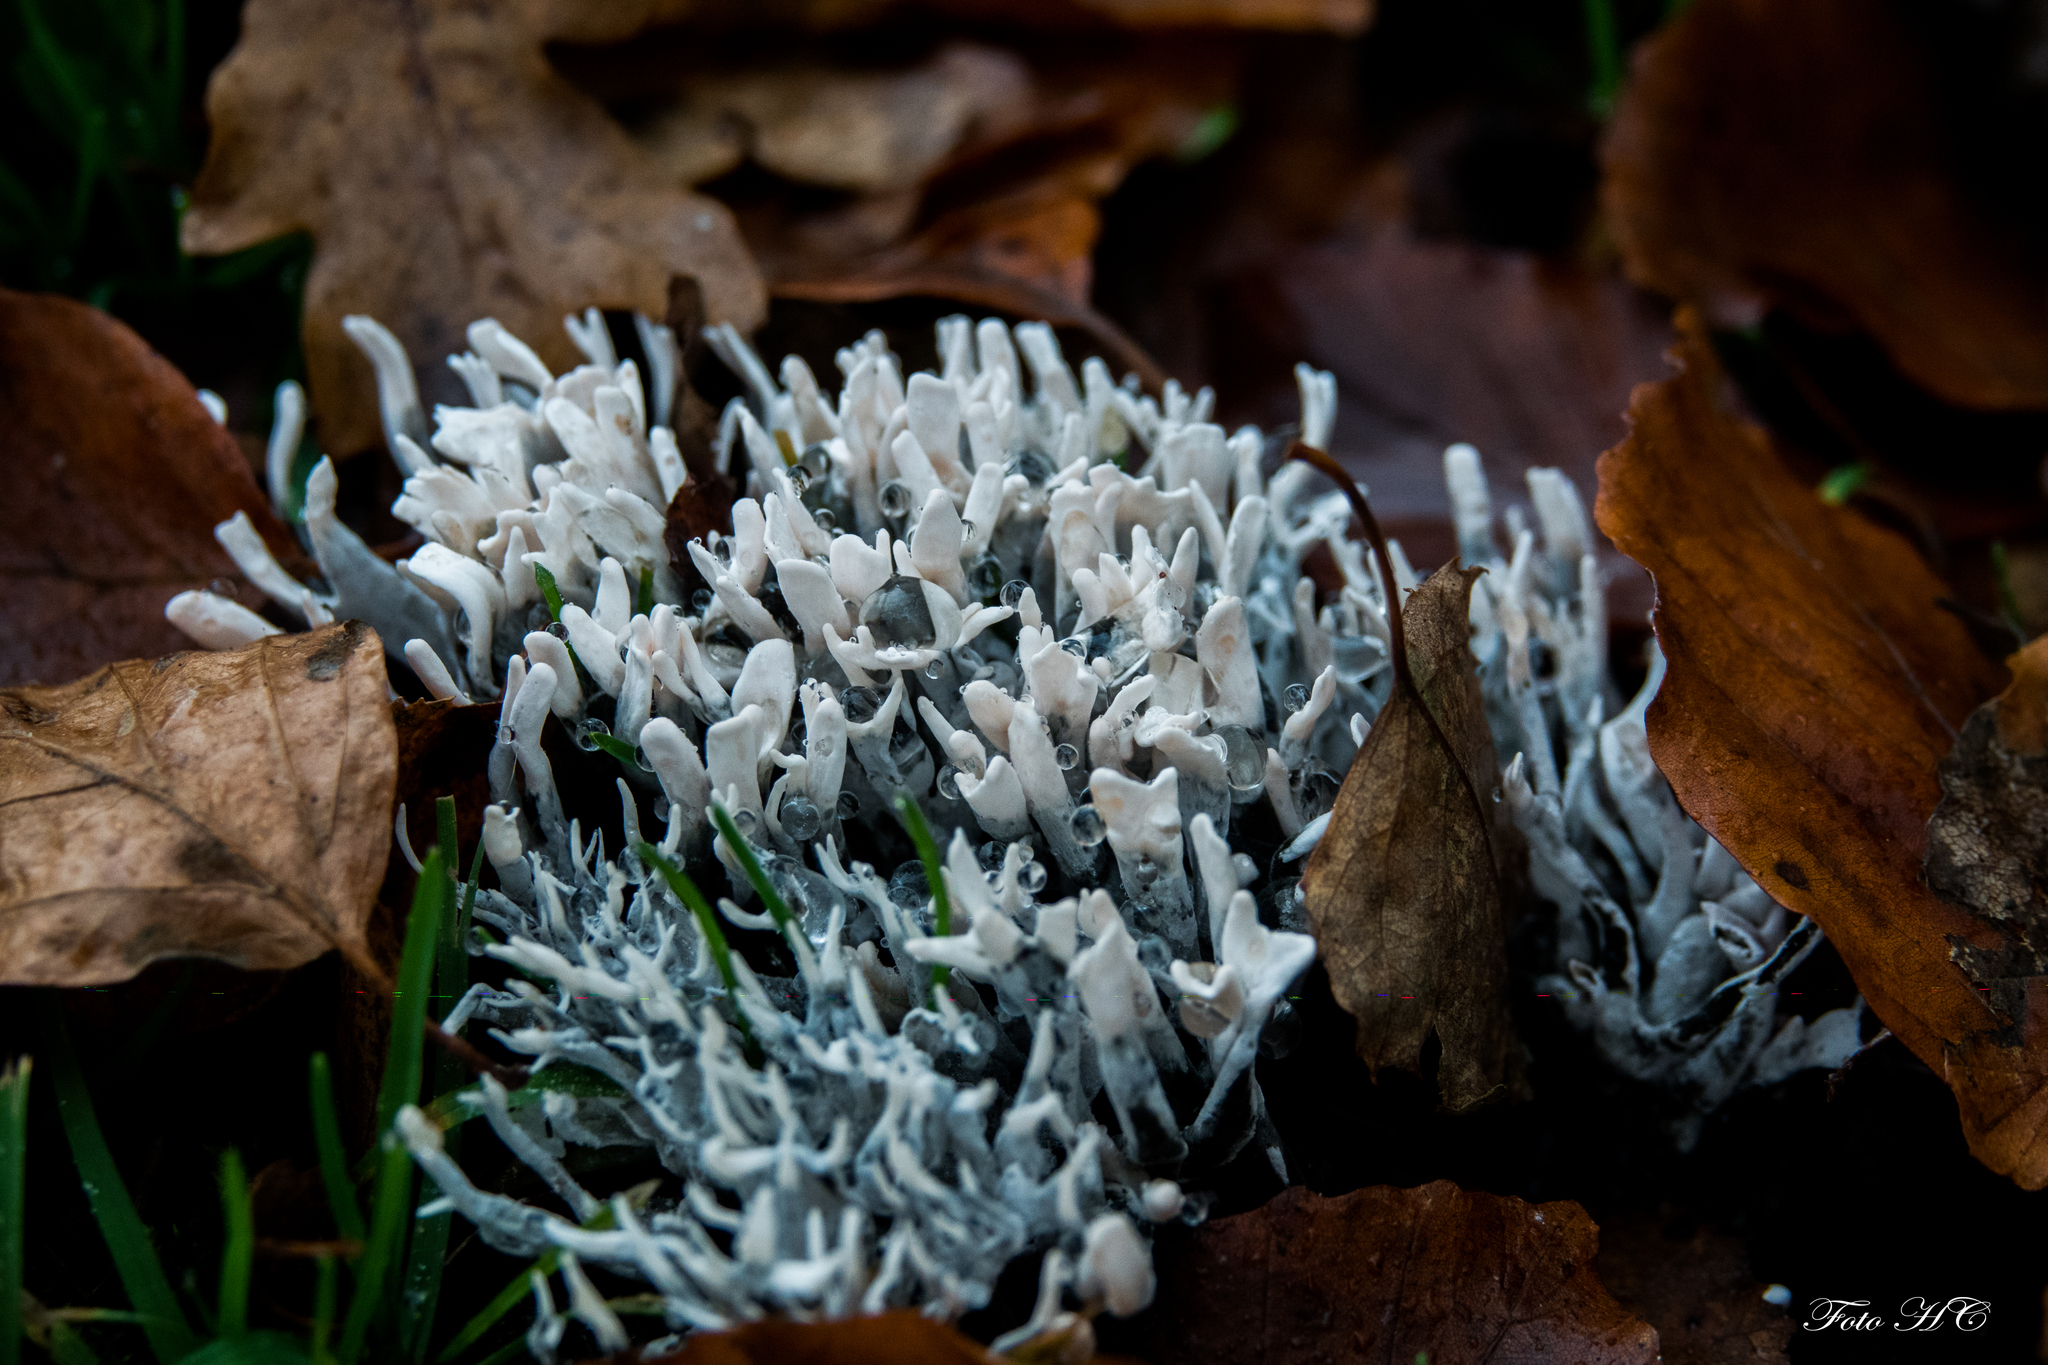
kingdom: Fungi
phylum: Ascomycota
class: Sordariomycetes
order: Xylariales
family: Xylariaceae
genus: Xylaria
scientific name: Xylaria hypoxylon
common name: Candle-snuff fungus
